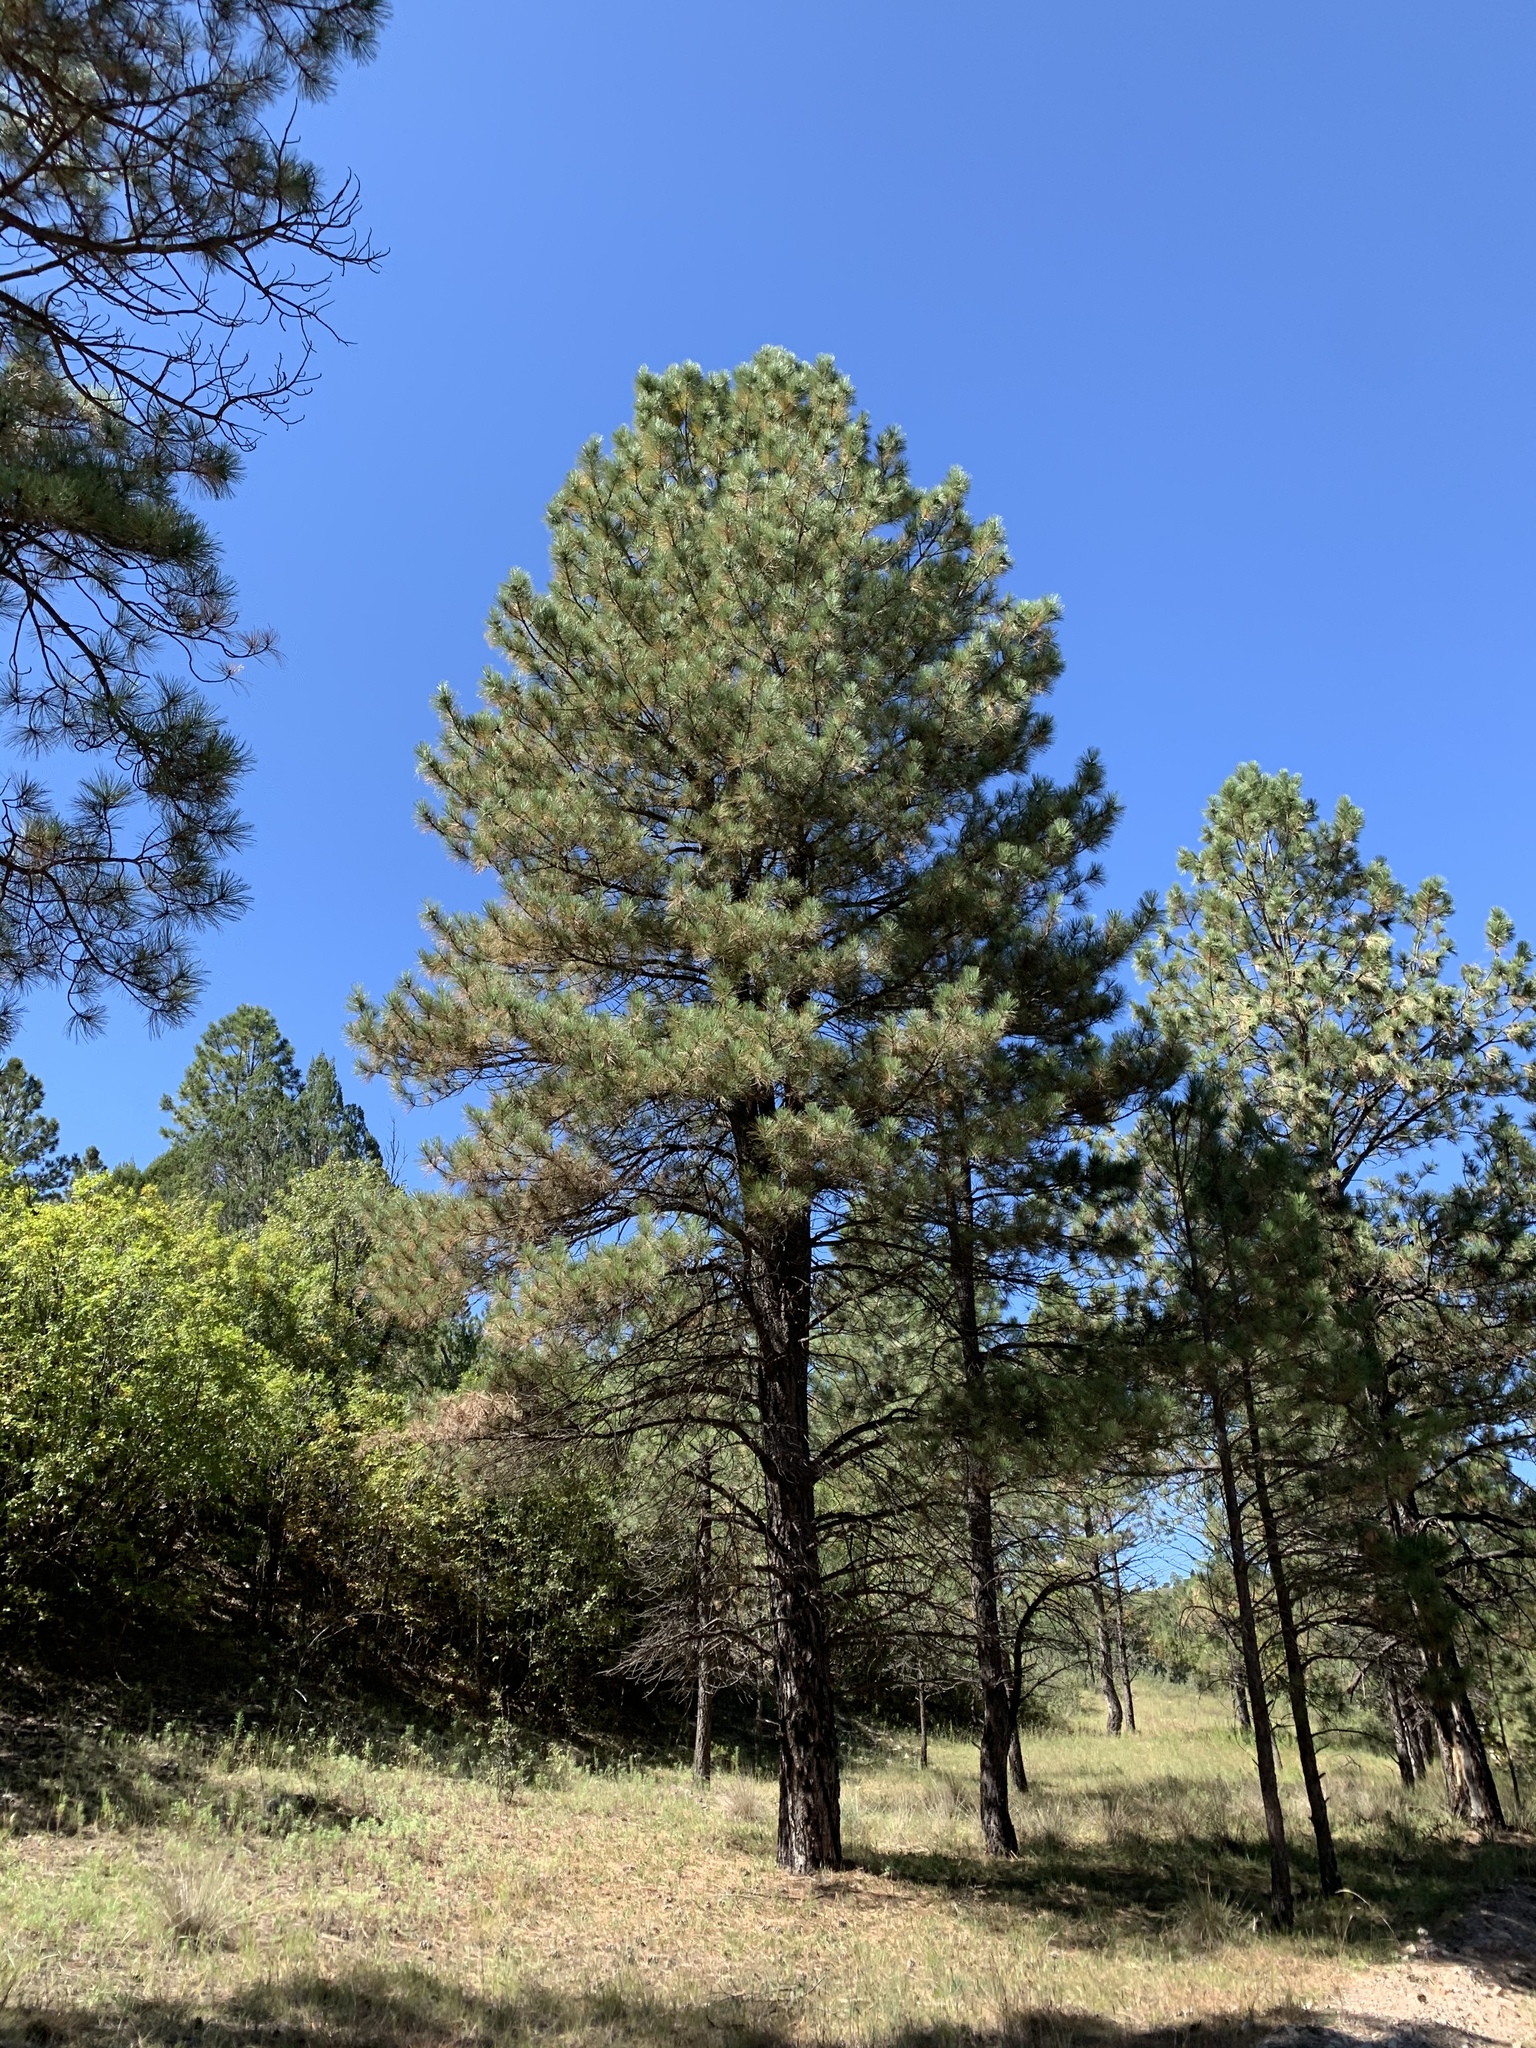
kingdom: Plantae
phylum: Tracheophyta
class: Pinopsida
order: Pinales
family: Pinaceae
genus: Pinus
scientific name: Pinus ponderosa
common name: Western yellow-pine
